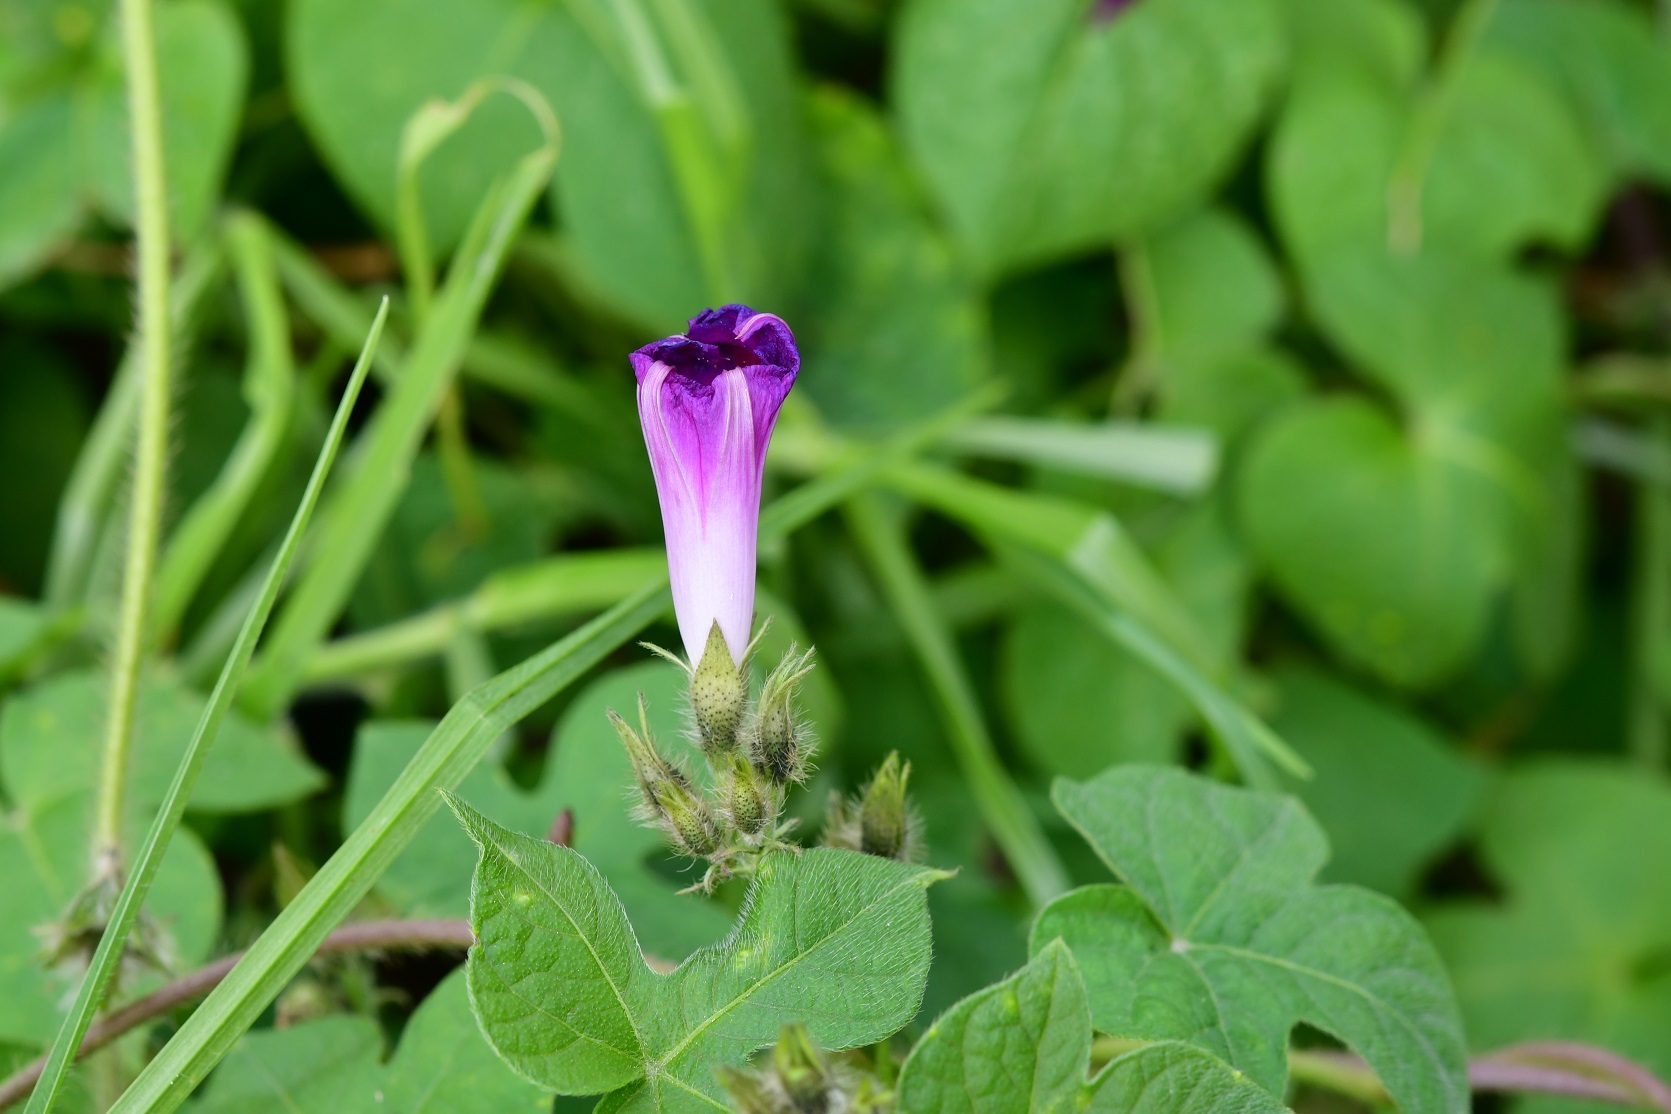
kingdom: Plantae
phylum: Tracheophyta
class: Magnoliopsida
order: Solanales
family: Convolvulaceae
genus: Ipomoea
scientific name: Ipomoea purpurea
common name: Common morning-glory
